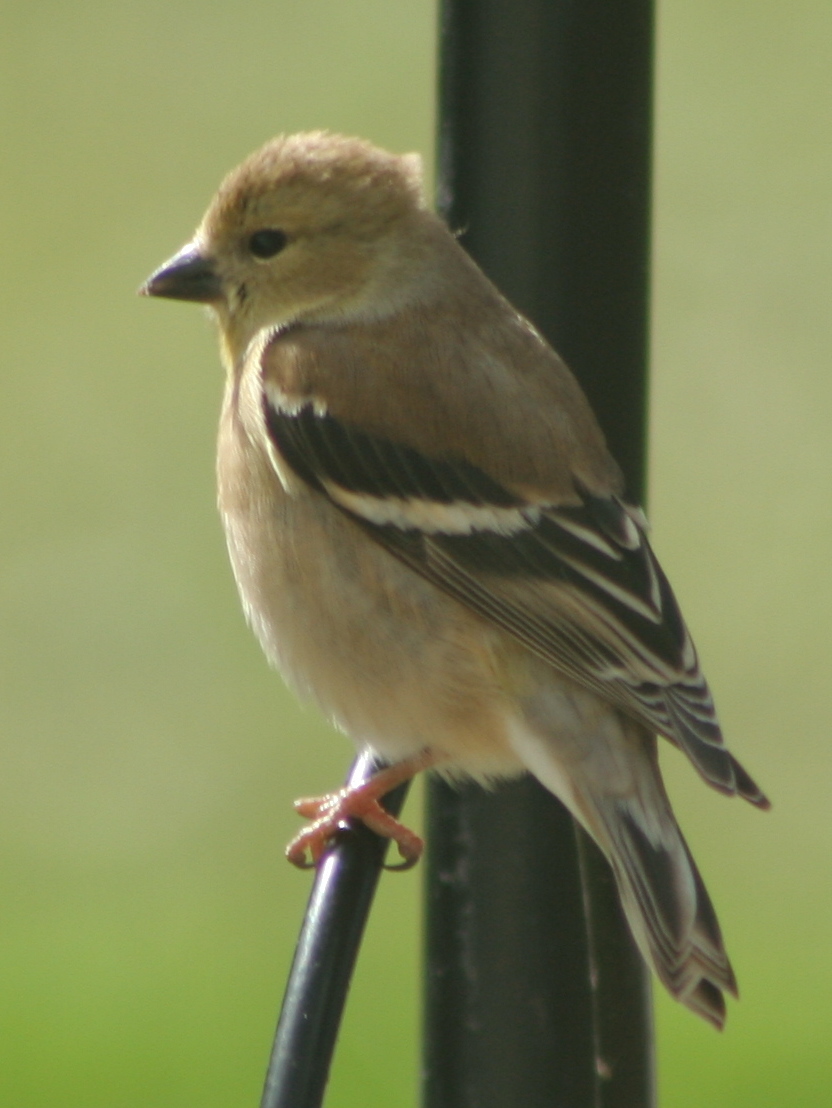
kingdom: Animalia
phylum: Chordata
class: Aves
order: Passeriformes
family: Fringillidae
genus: Spinus
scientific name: Spinus tristis
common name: American goldfinch
